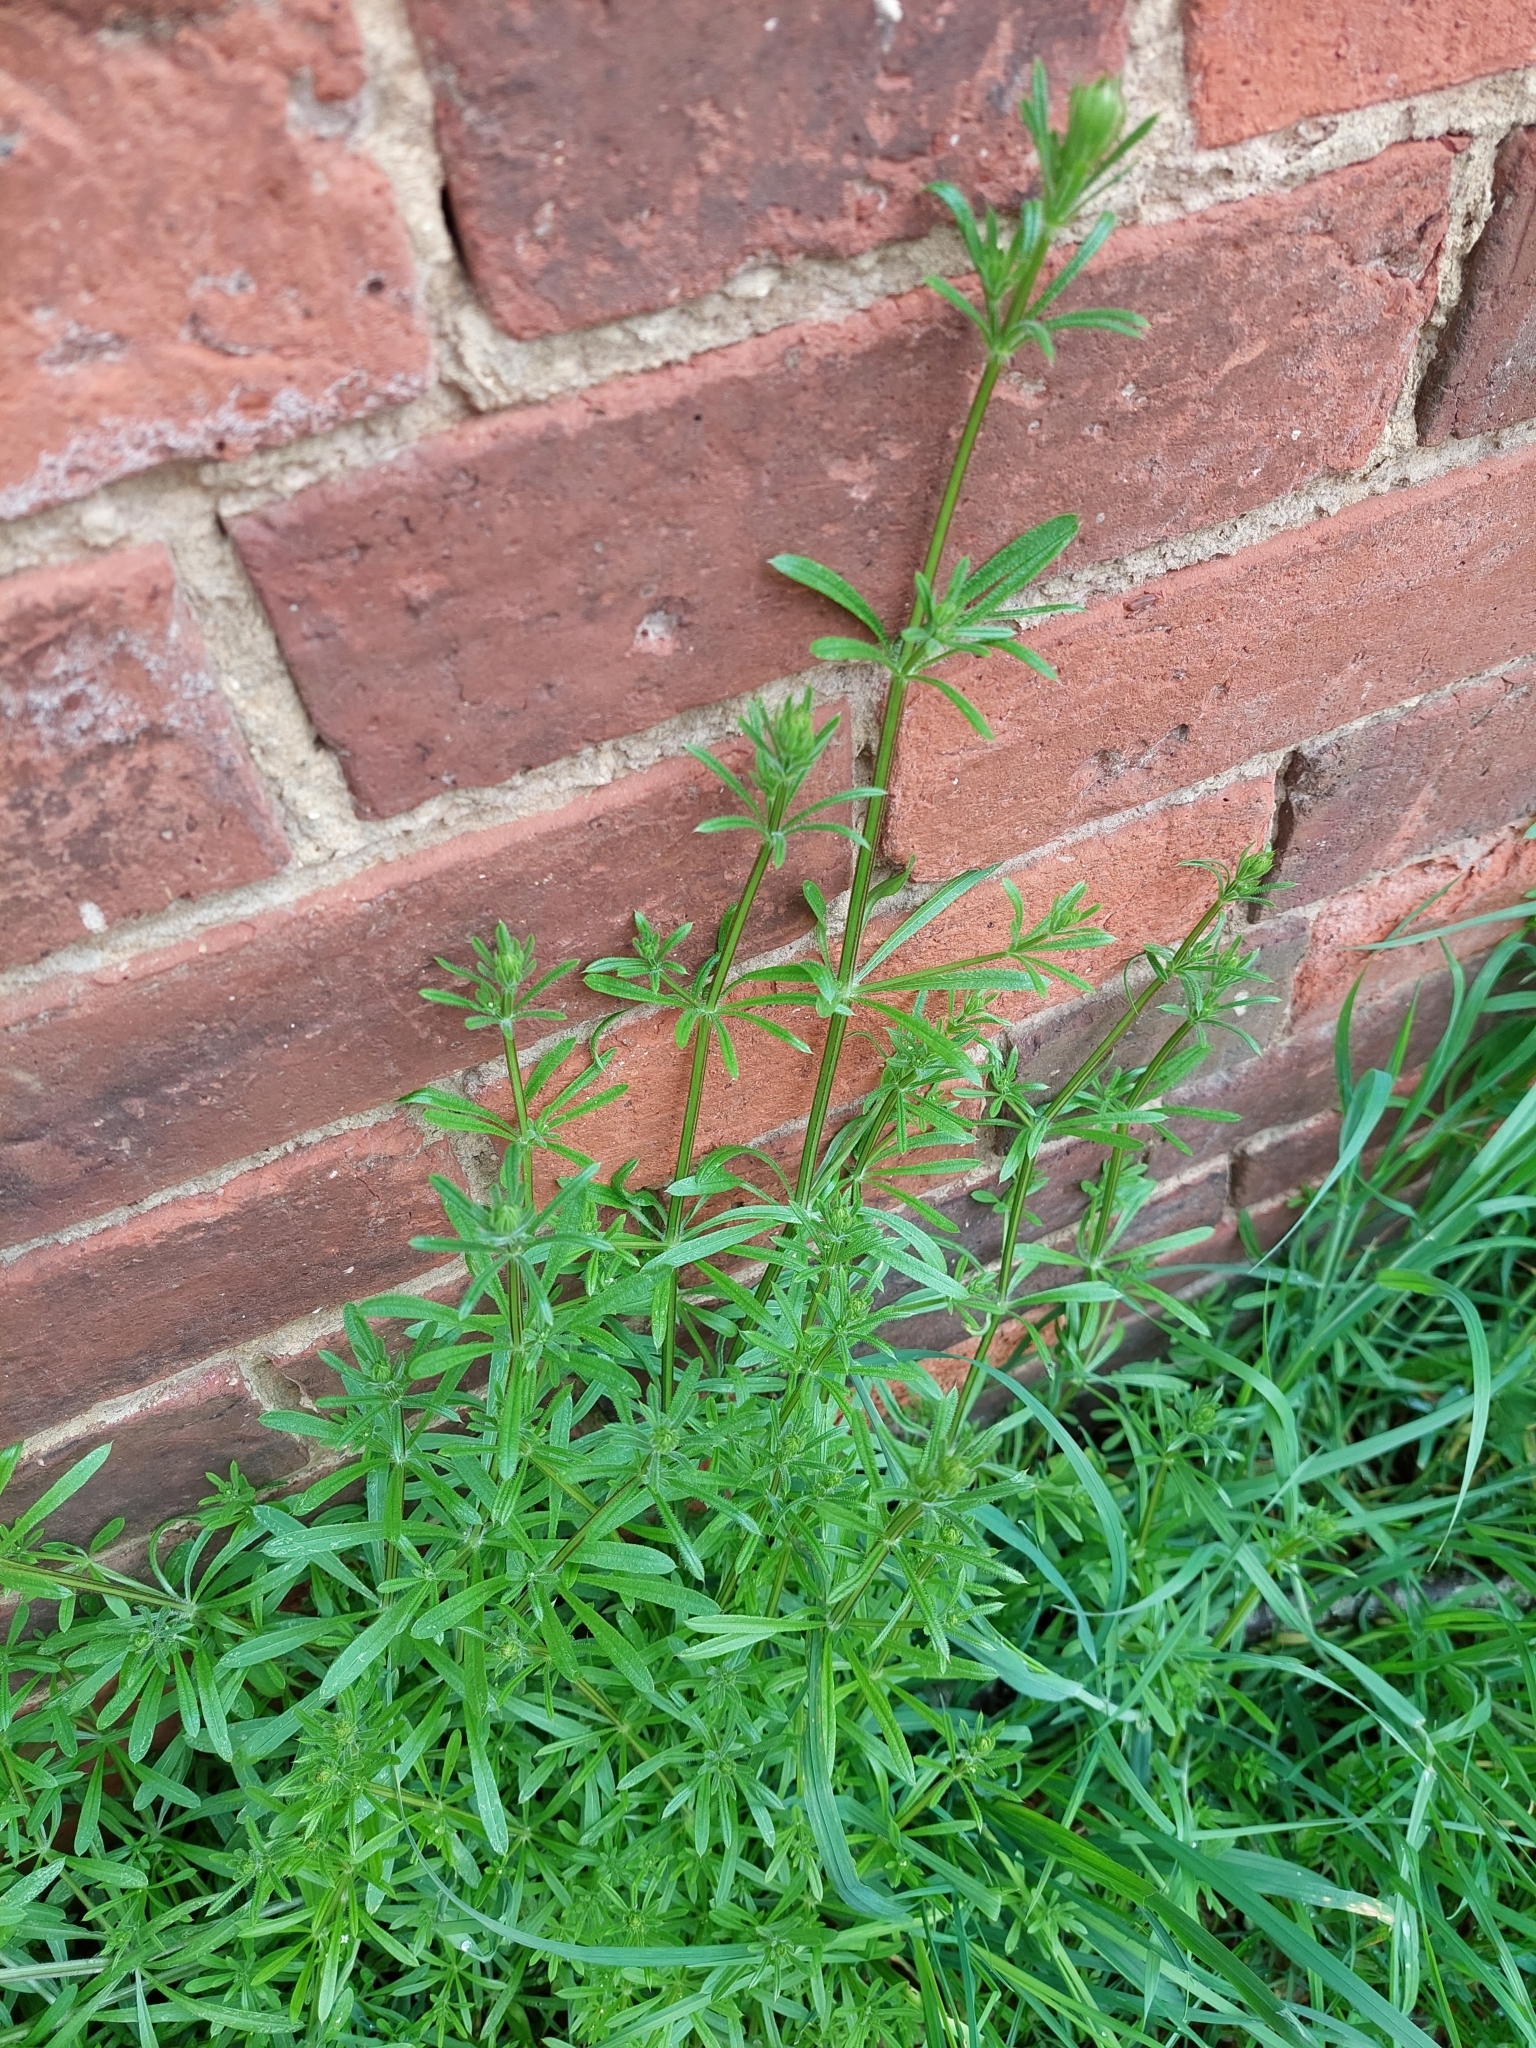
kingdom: Plantae
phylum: Tracheophyta
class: Magnoliopsida
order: Gentianales
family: Rubiaceae
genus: Galium
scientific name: Galium aparine
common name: Cleavers
